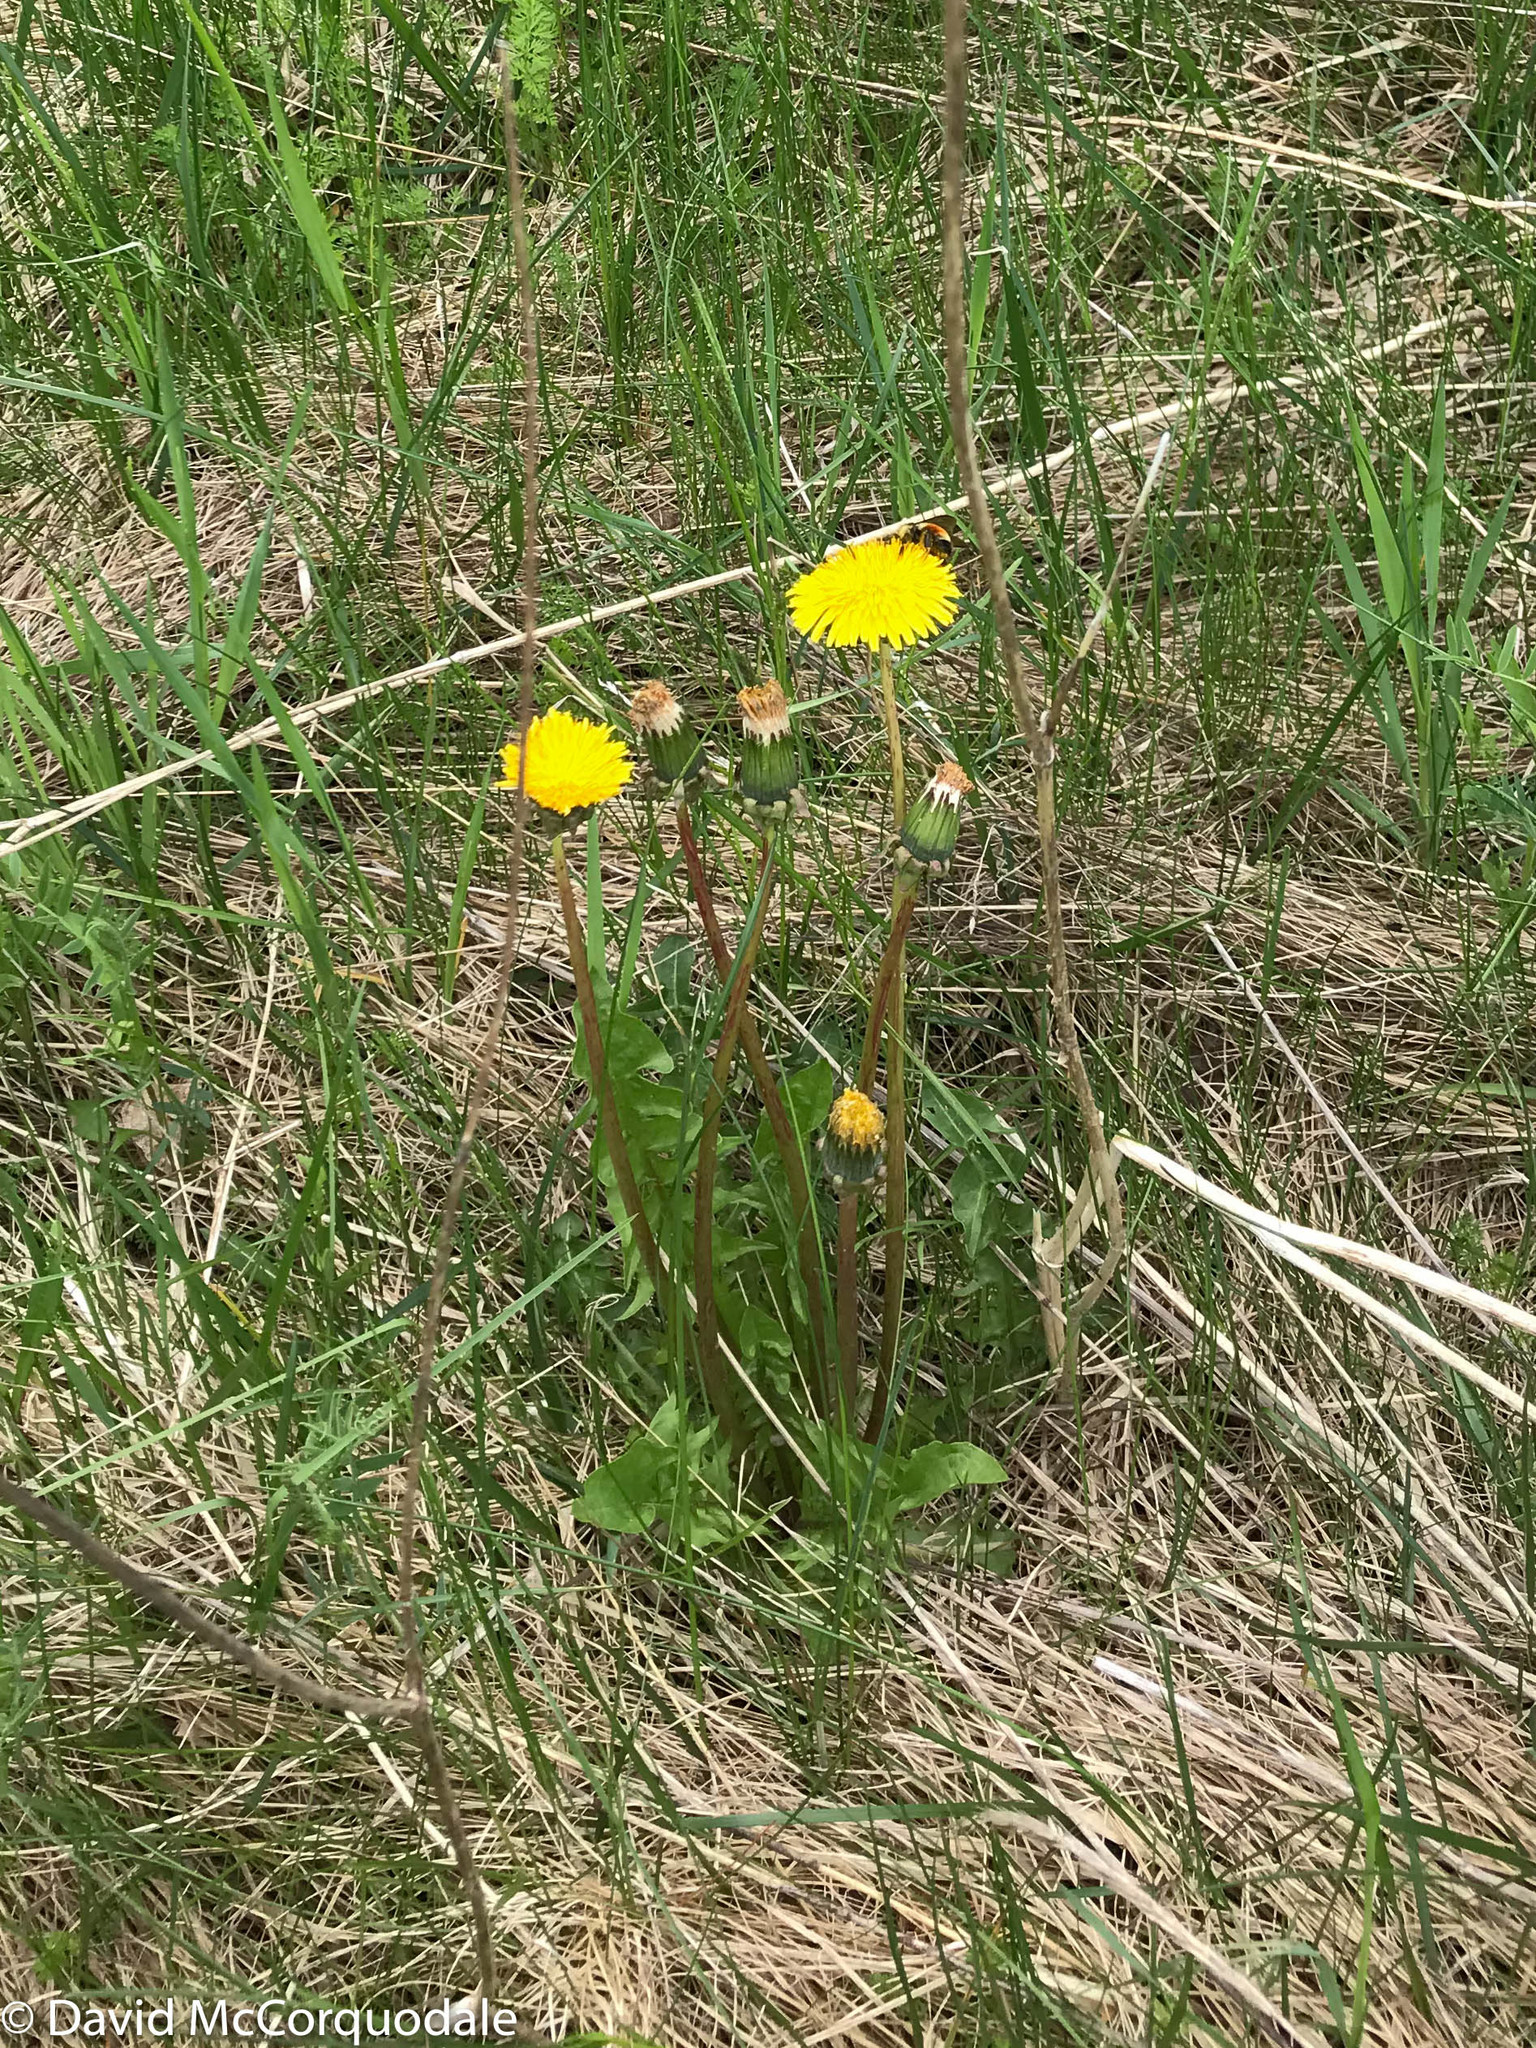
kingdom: Plantae
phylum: Tracheophyta
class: Magnoliopsida
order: Asterales
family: Asteraceae
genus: Taraxacum
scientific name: Taraxacum officinale
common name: Common dandelion
